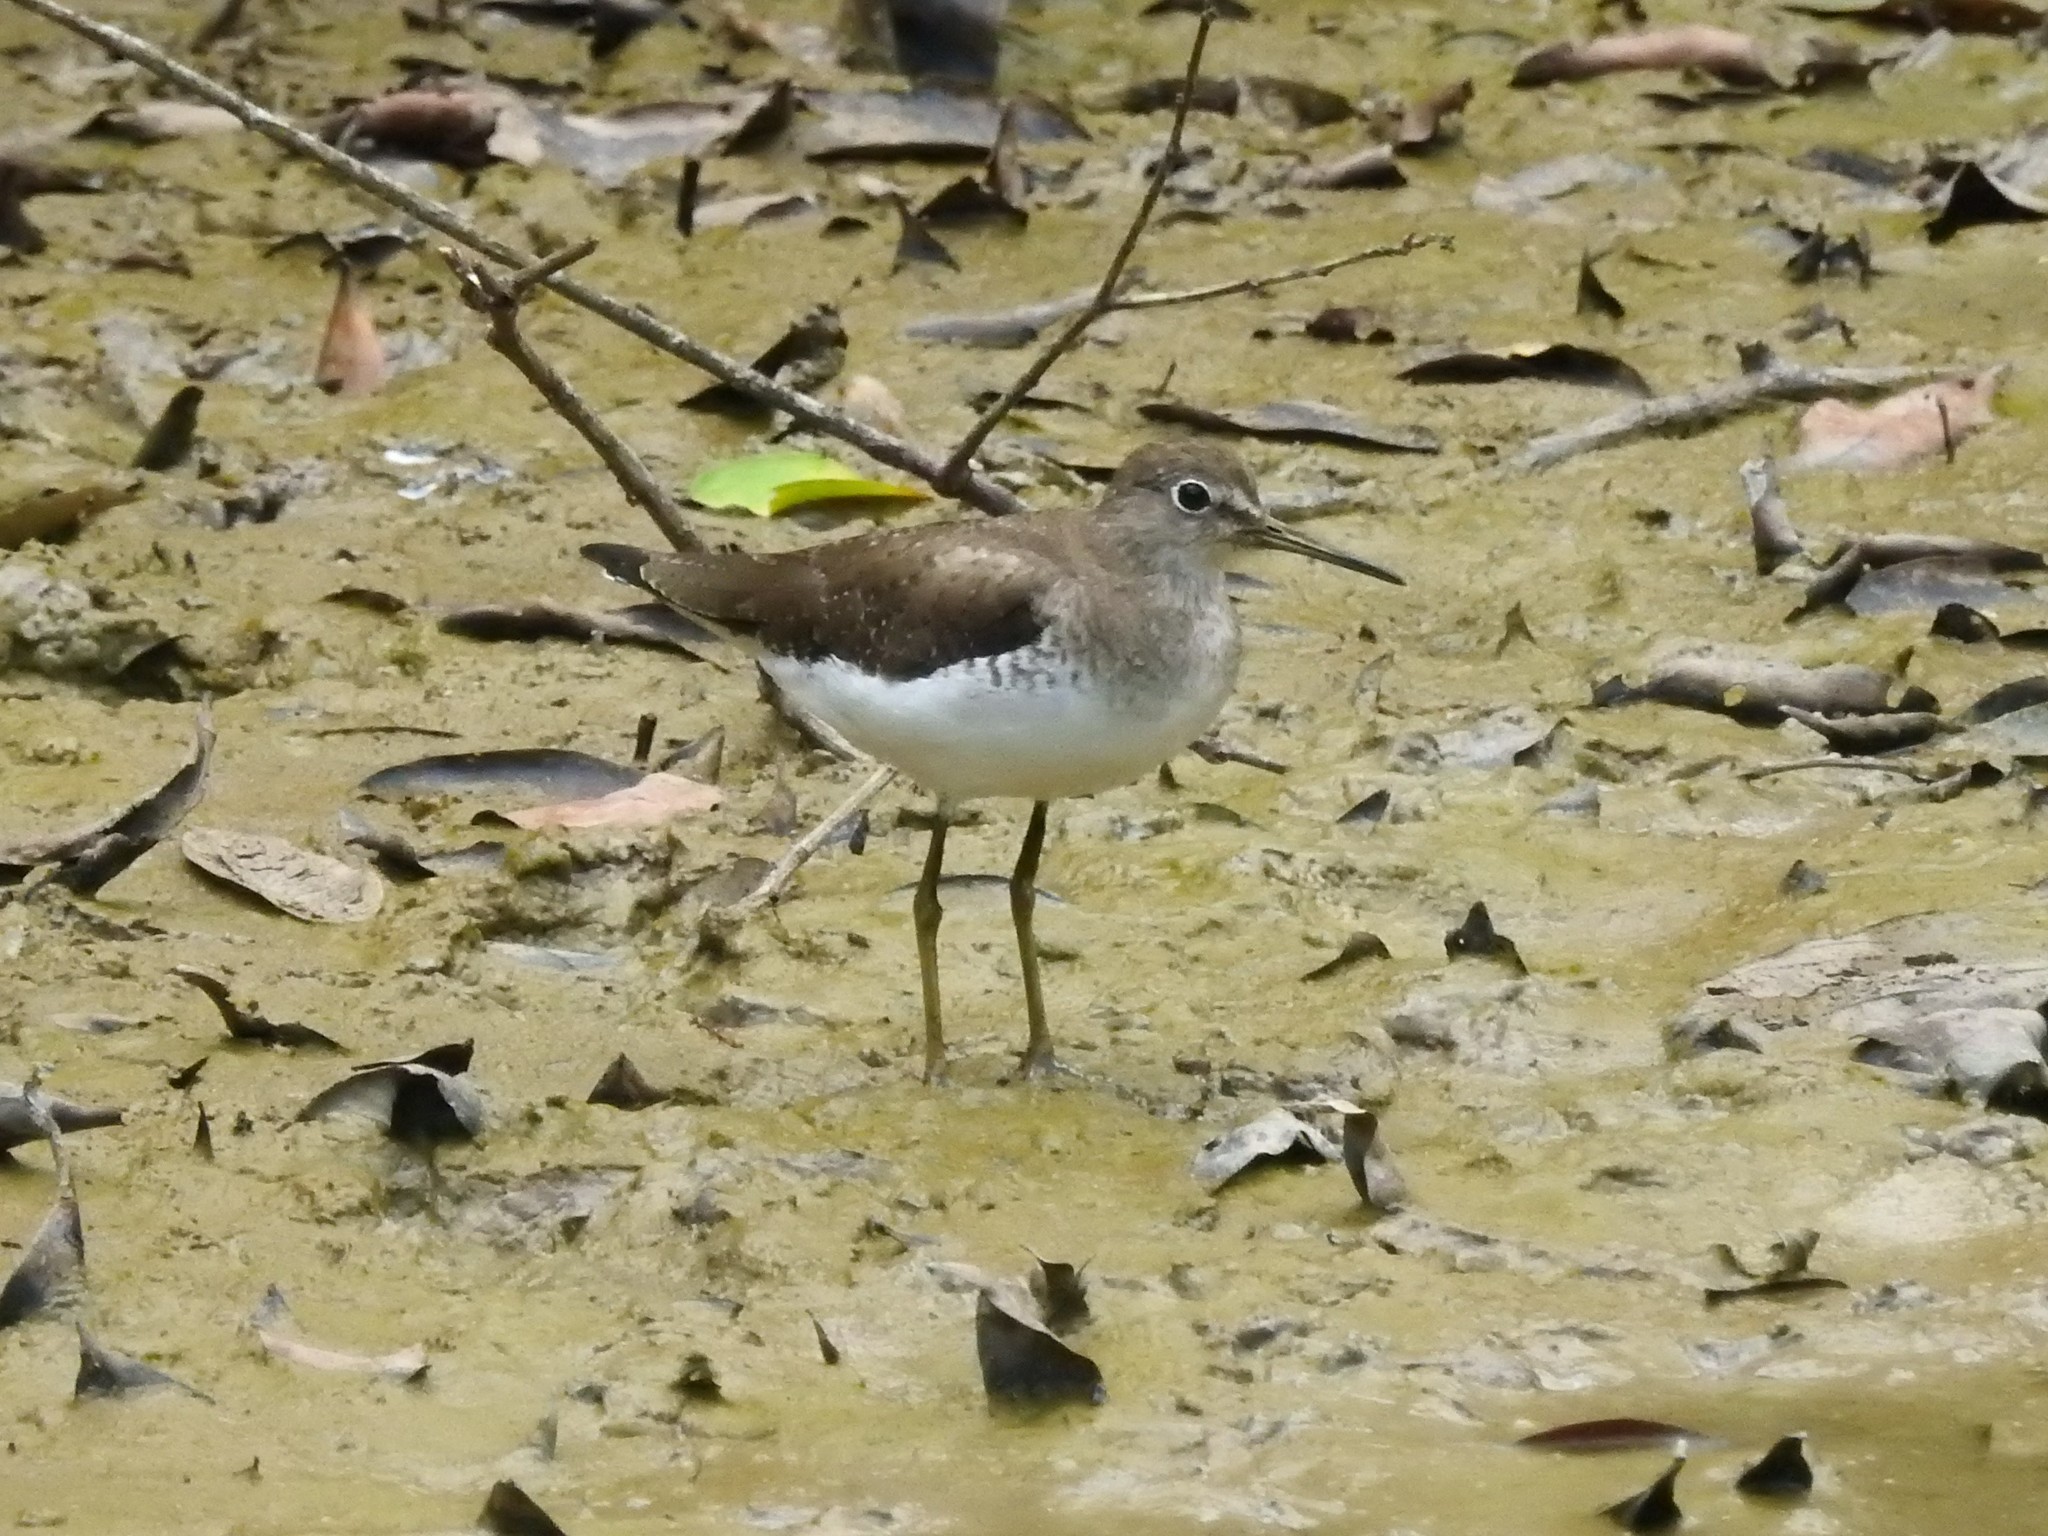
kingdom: Animalia
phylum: Chordata
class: Aves
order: Charadriiformes
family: Scolopacidae
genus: Tringa
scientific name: Tringa solitaria
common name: Solitary sandpiper
